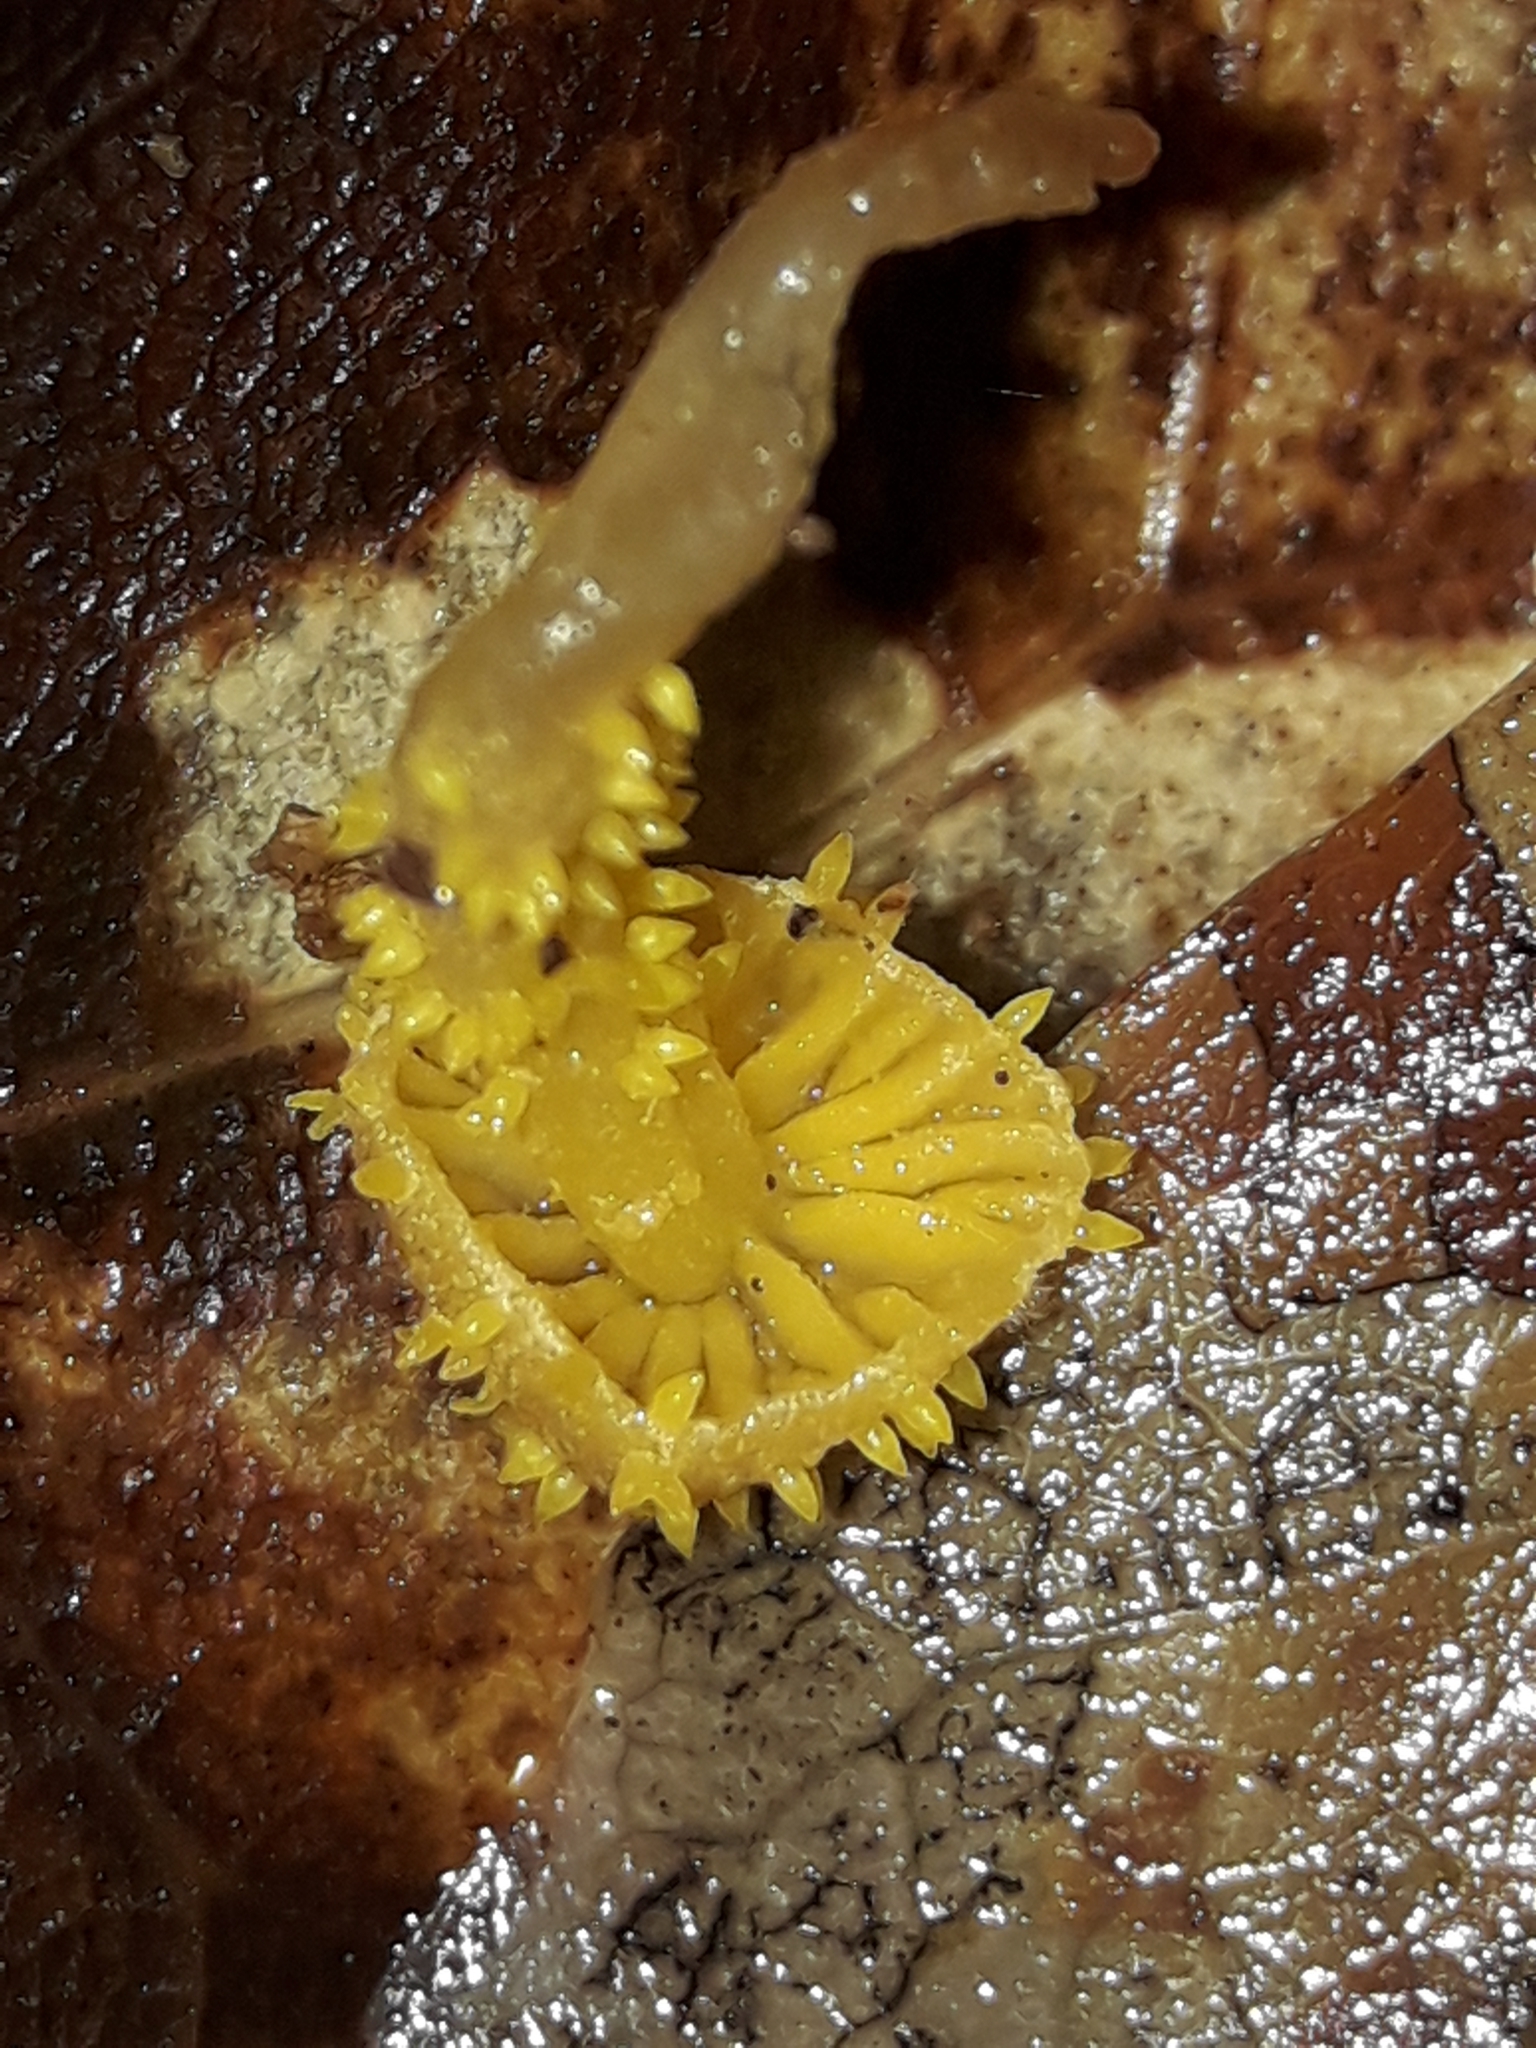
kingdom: Fungi
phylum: Ascomycota
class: Sordariomycetes
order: Hypocreales
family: Clavicipitaceae
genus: Neobarya
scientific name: Neobarya agaricicola
